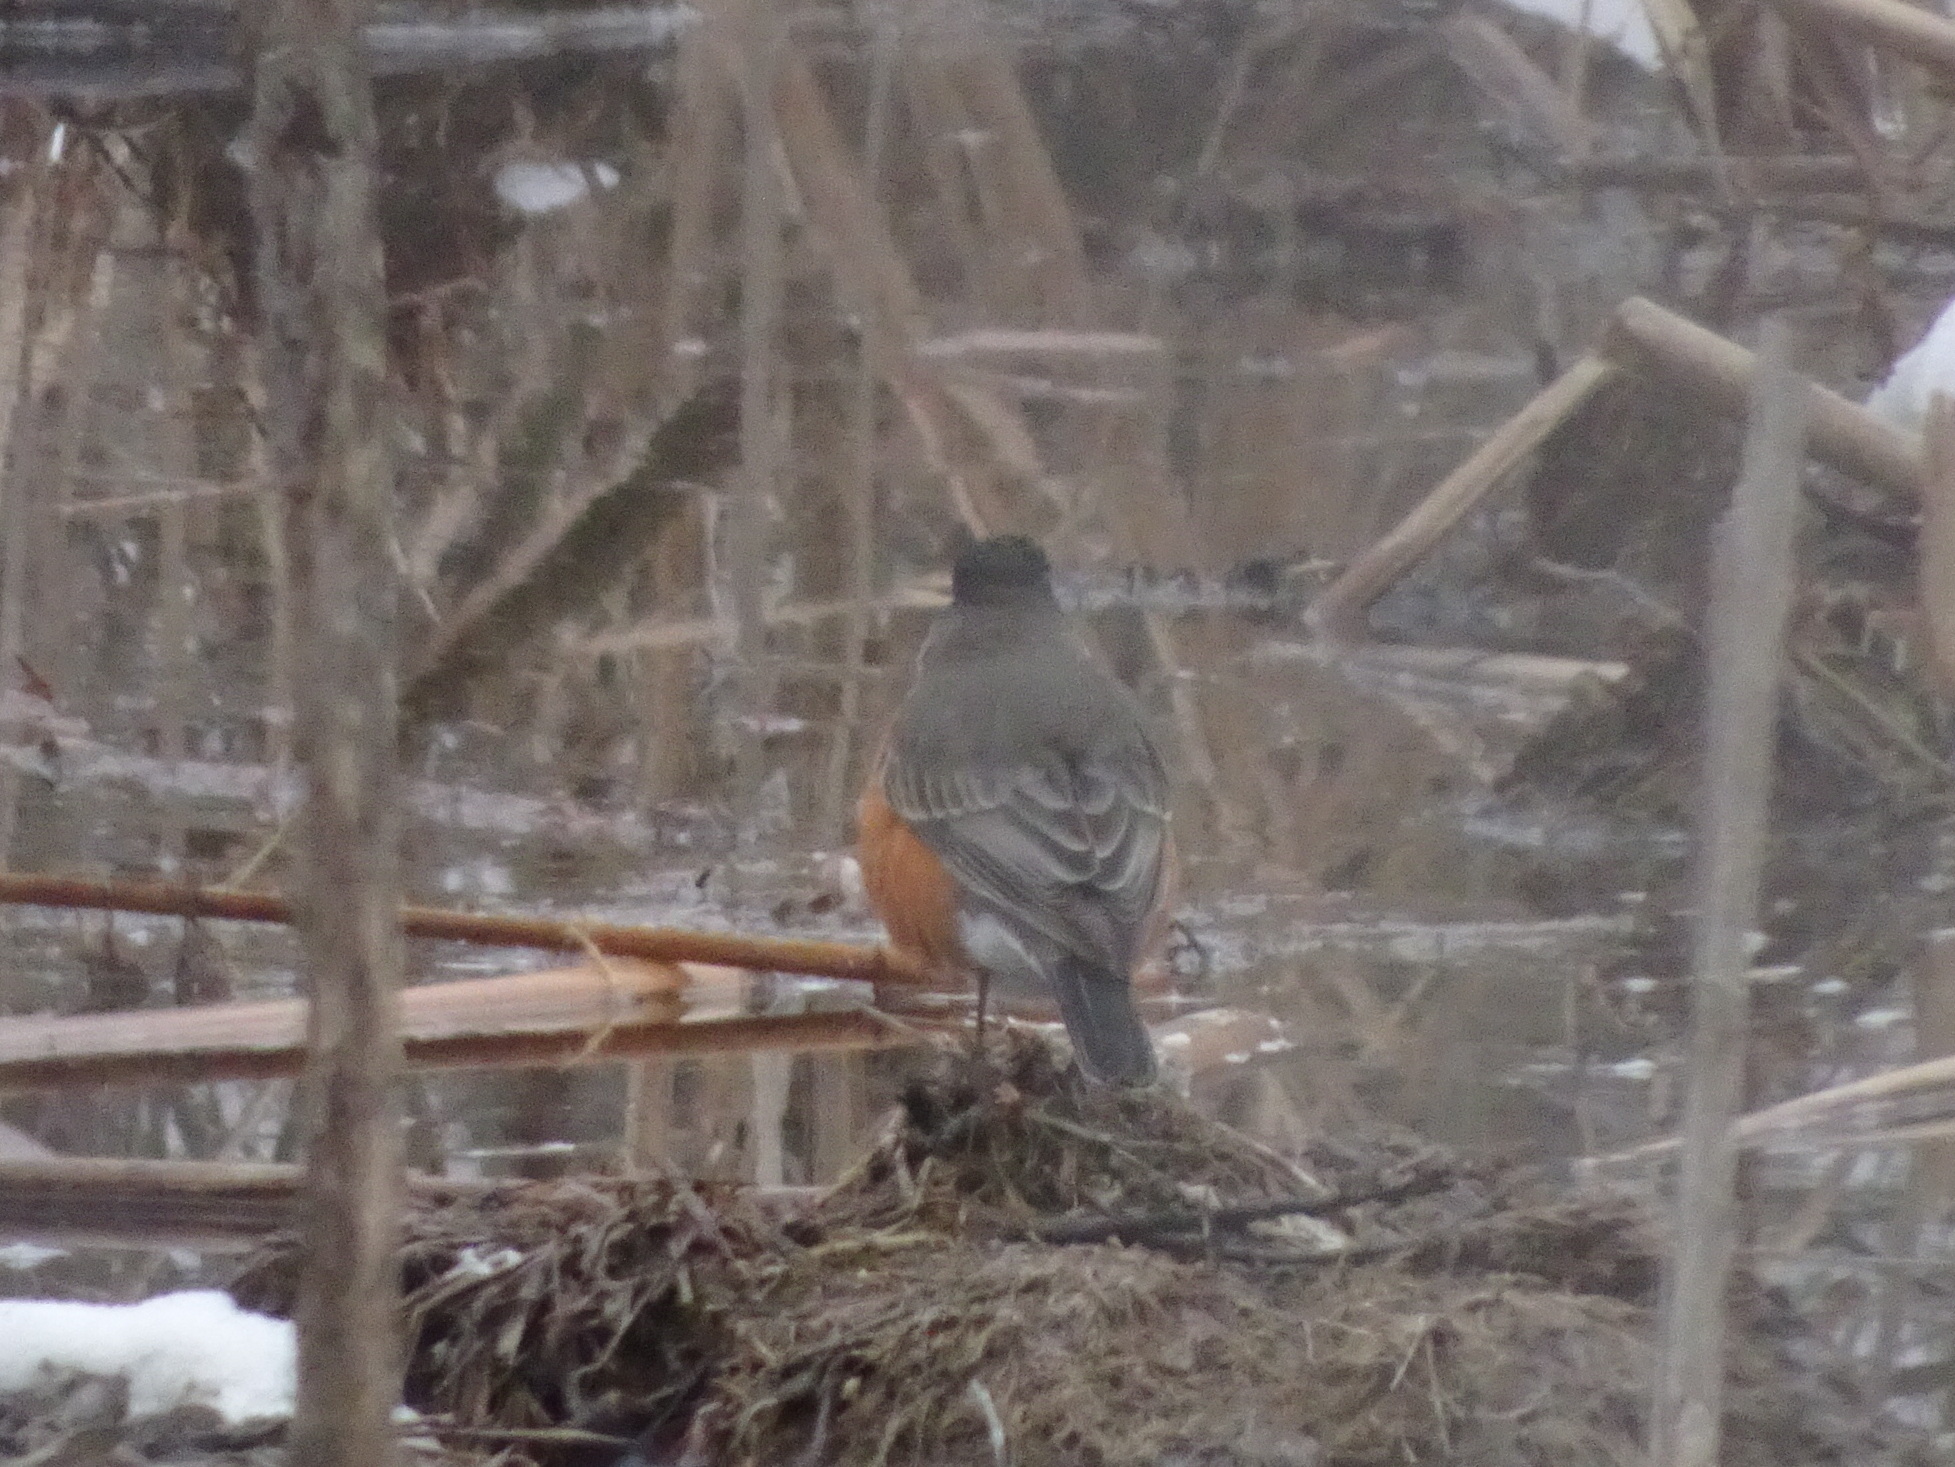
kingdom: Animalia
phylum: Chordata
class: Aves
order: Passeriformes
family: Turdidae
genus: Turdus
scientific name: Turdus migratorius
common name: American robin
